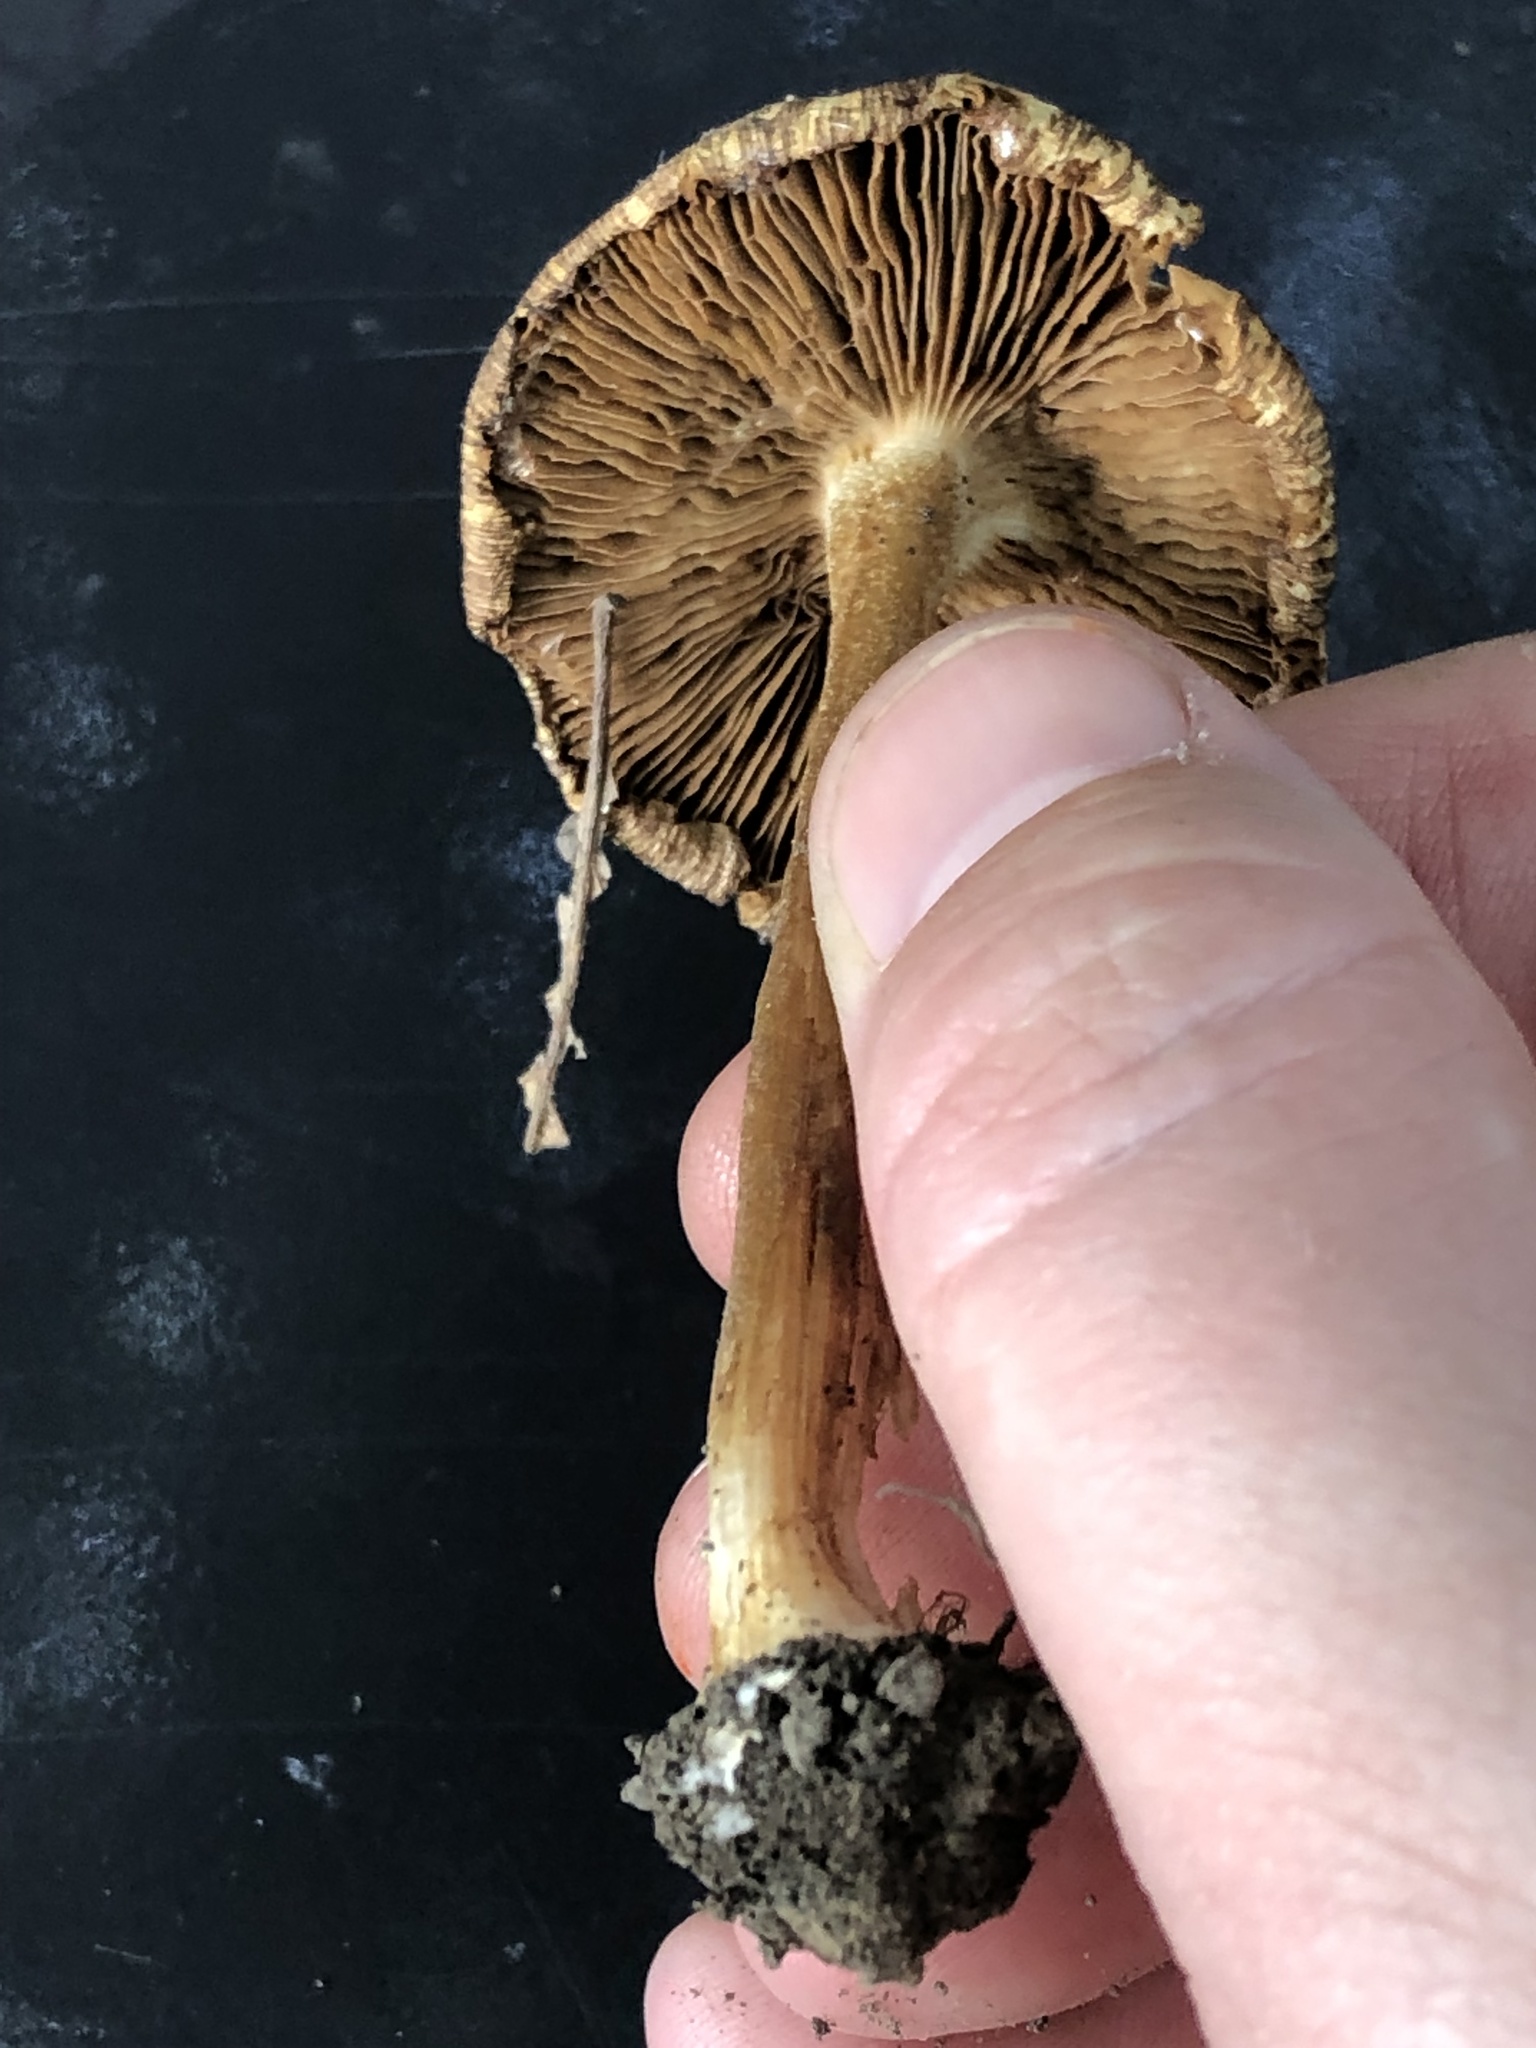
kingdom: Fungi
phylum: Basidiomycota
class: Agaricomycetes
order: Agaricales
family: Inocybaceae
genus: Pseudosperma
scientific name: Pseudosperma sororium
